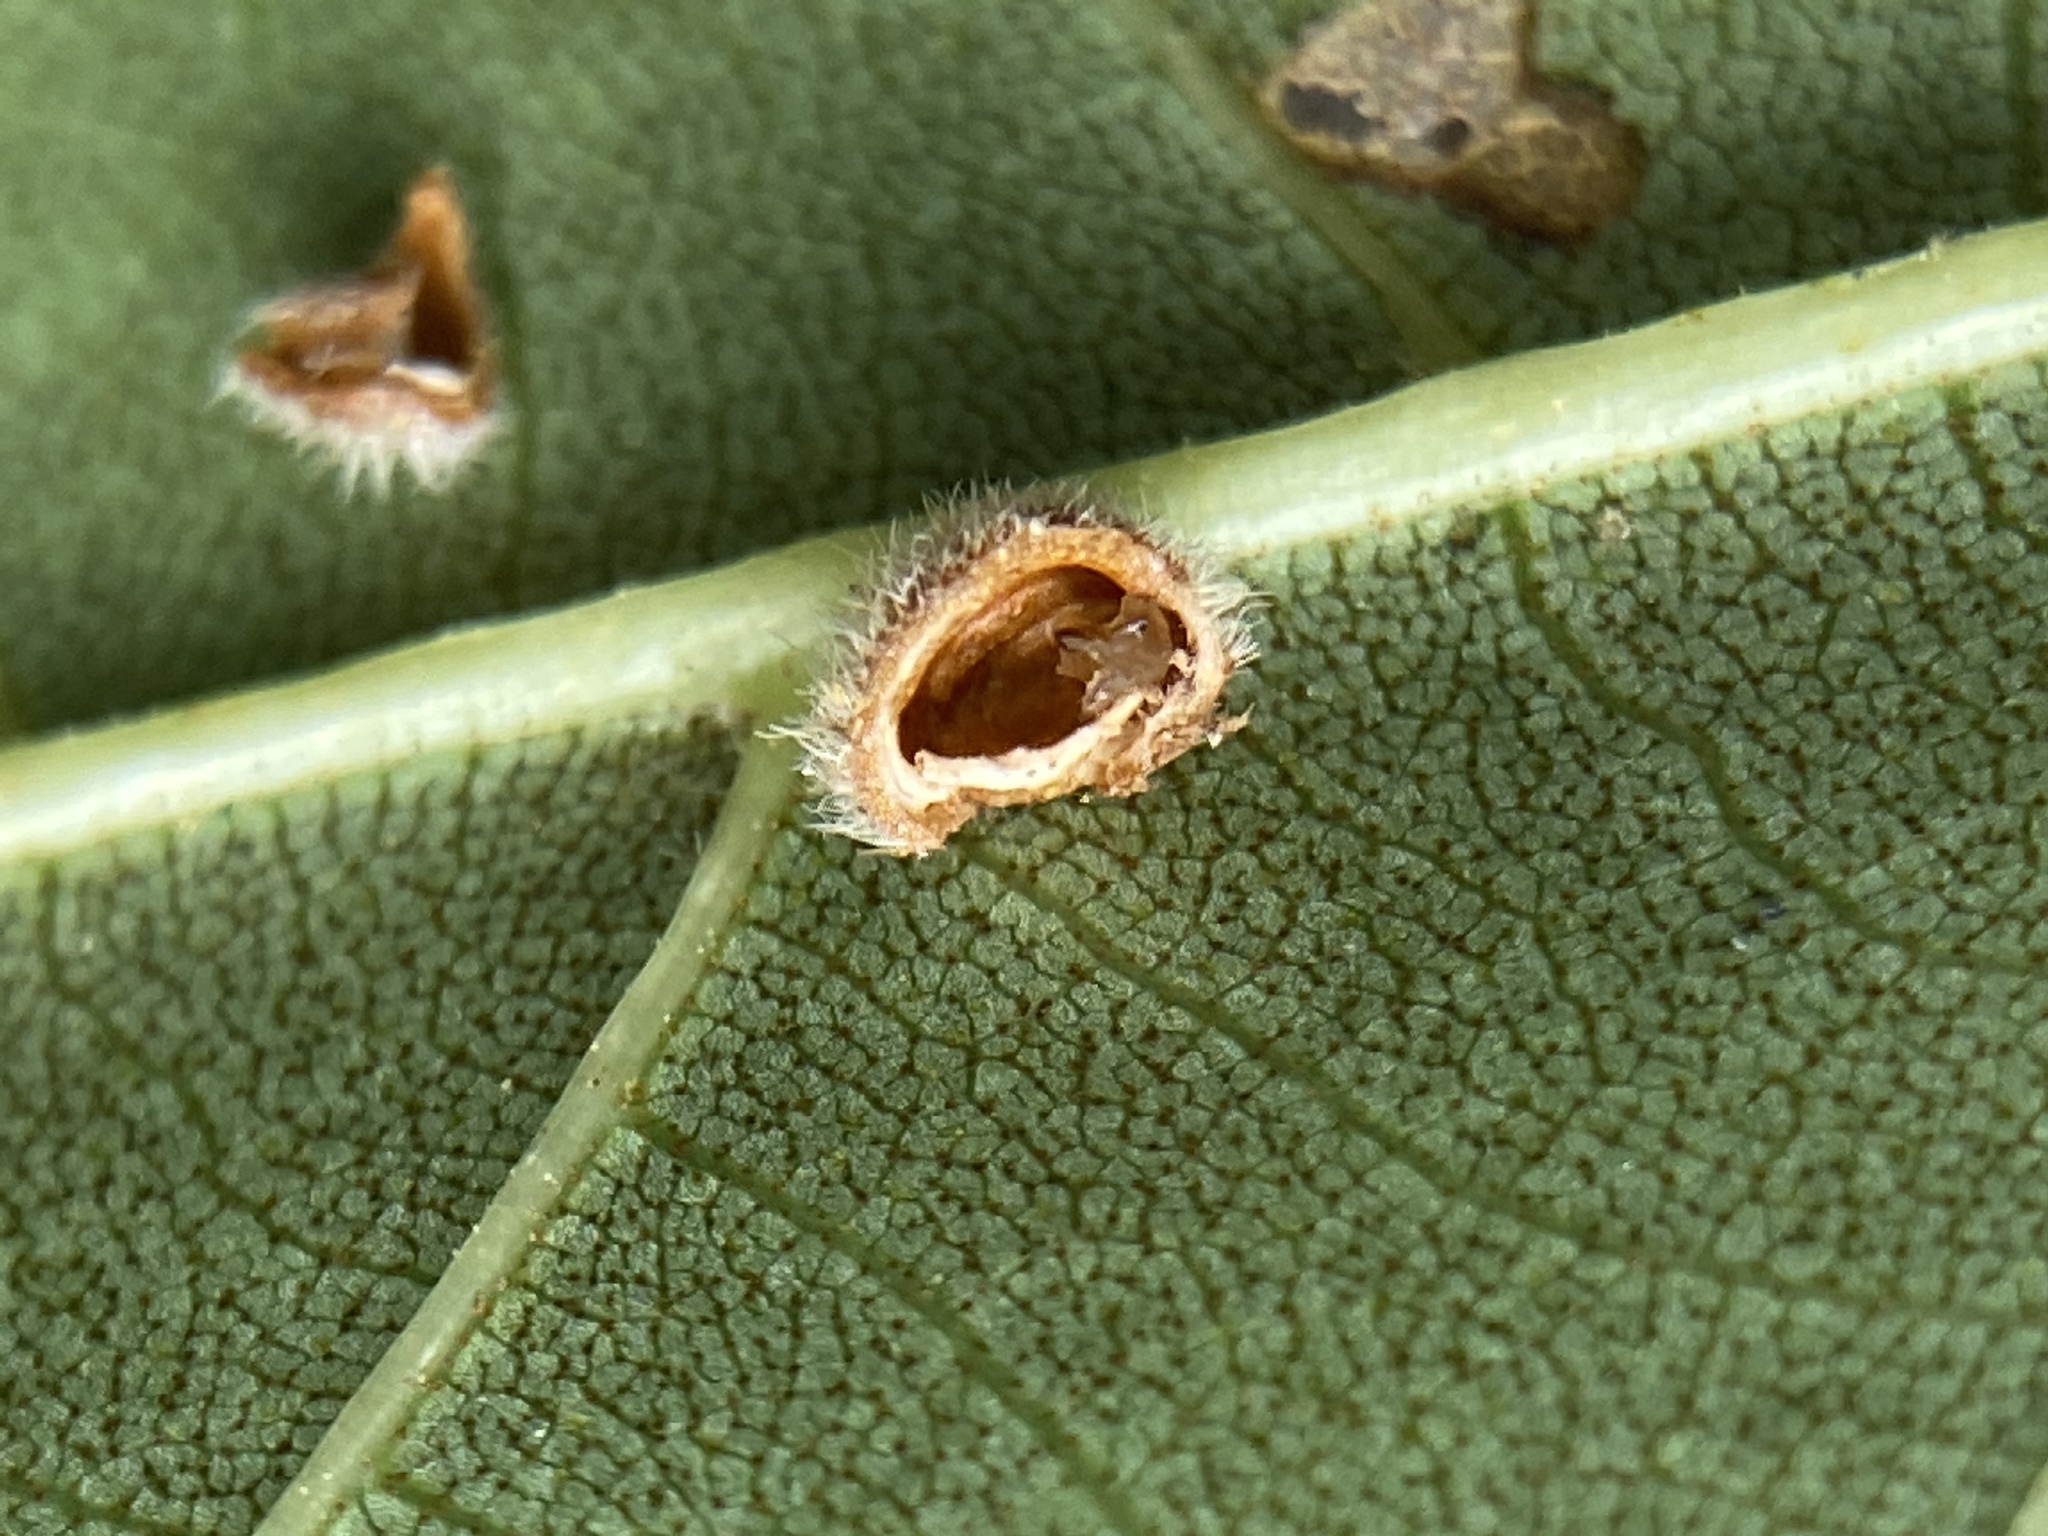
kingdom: Animalia
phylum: Arthropoda
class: Insecta
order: Diptera
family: Cecidomyiidae
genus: Caryomyia
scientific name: Caryomyia purpurea
